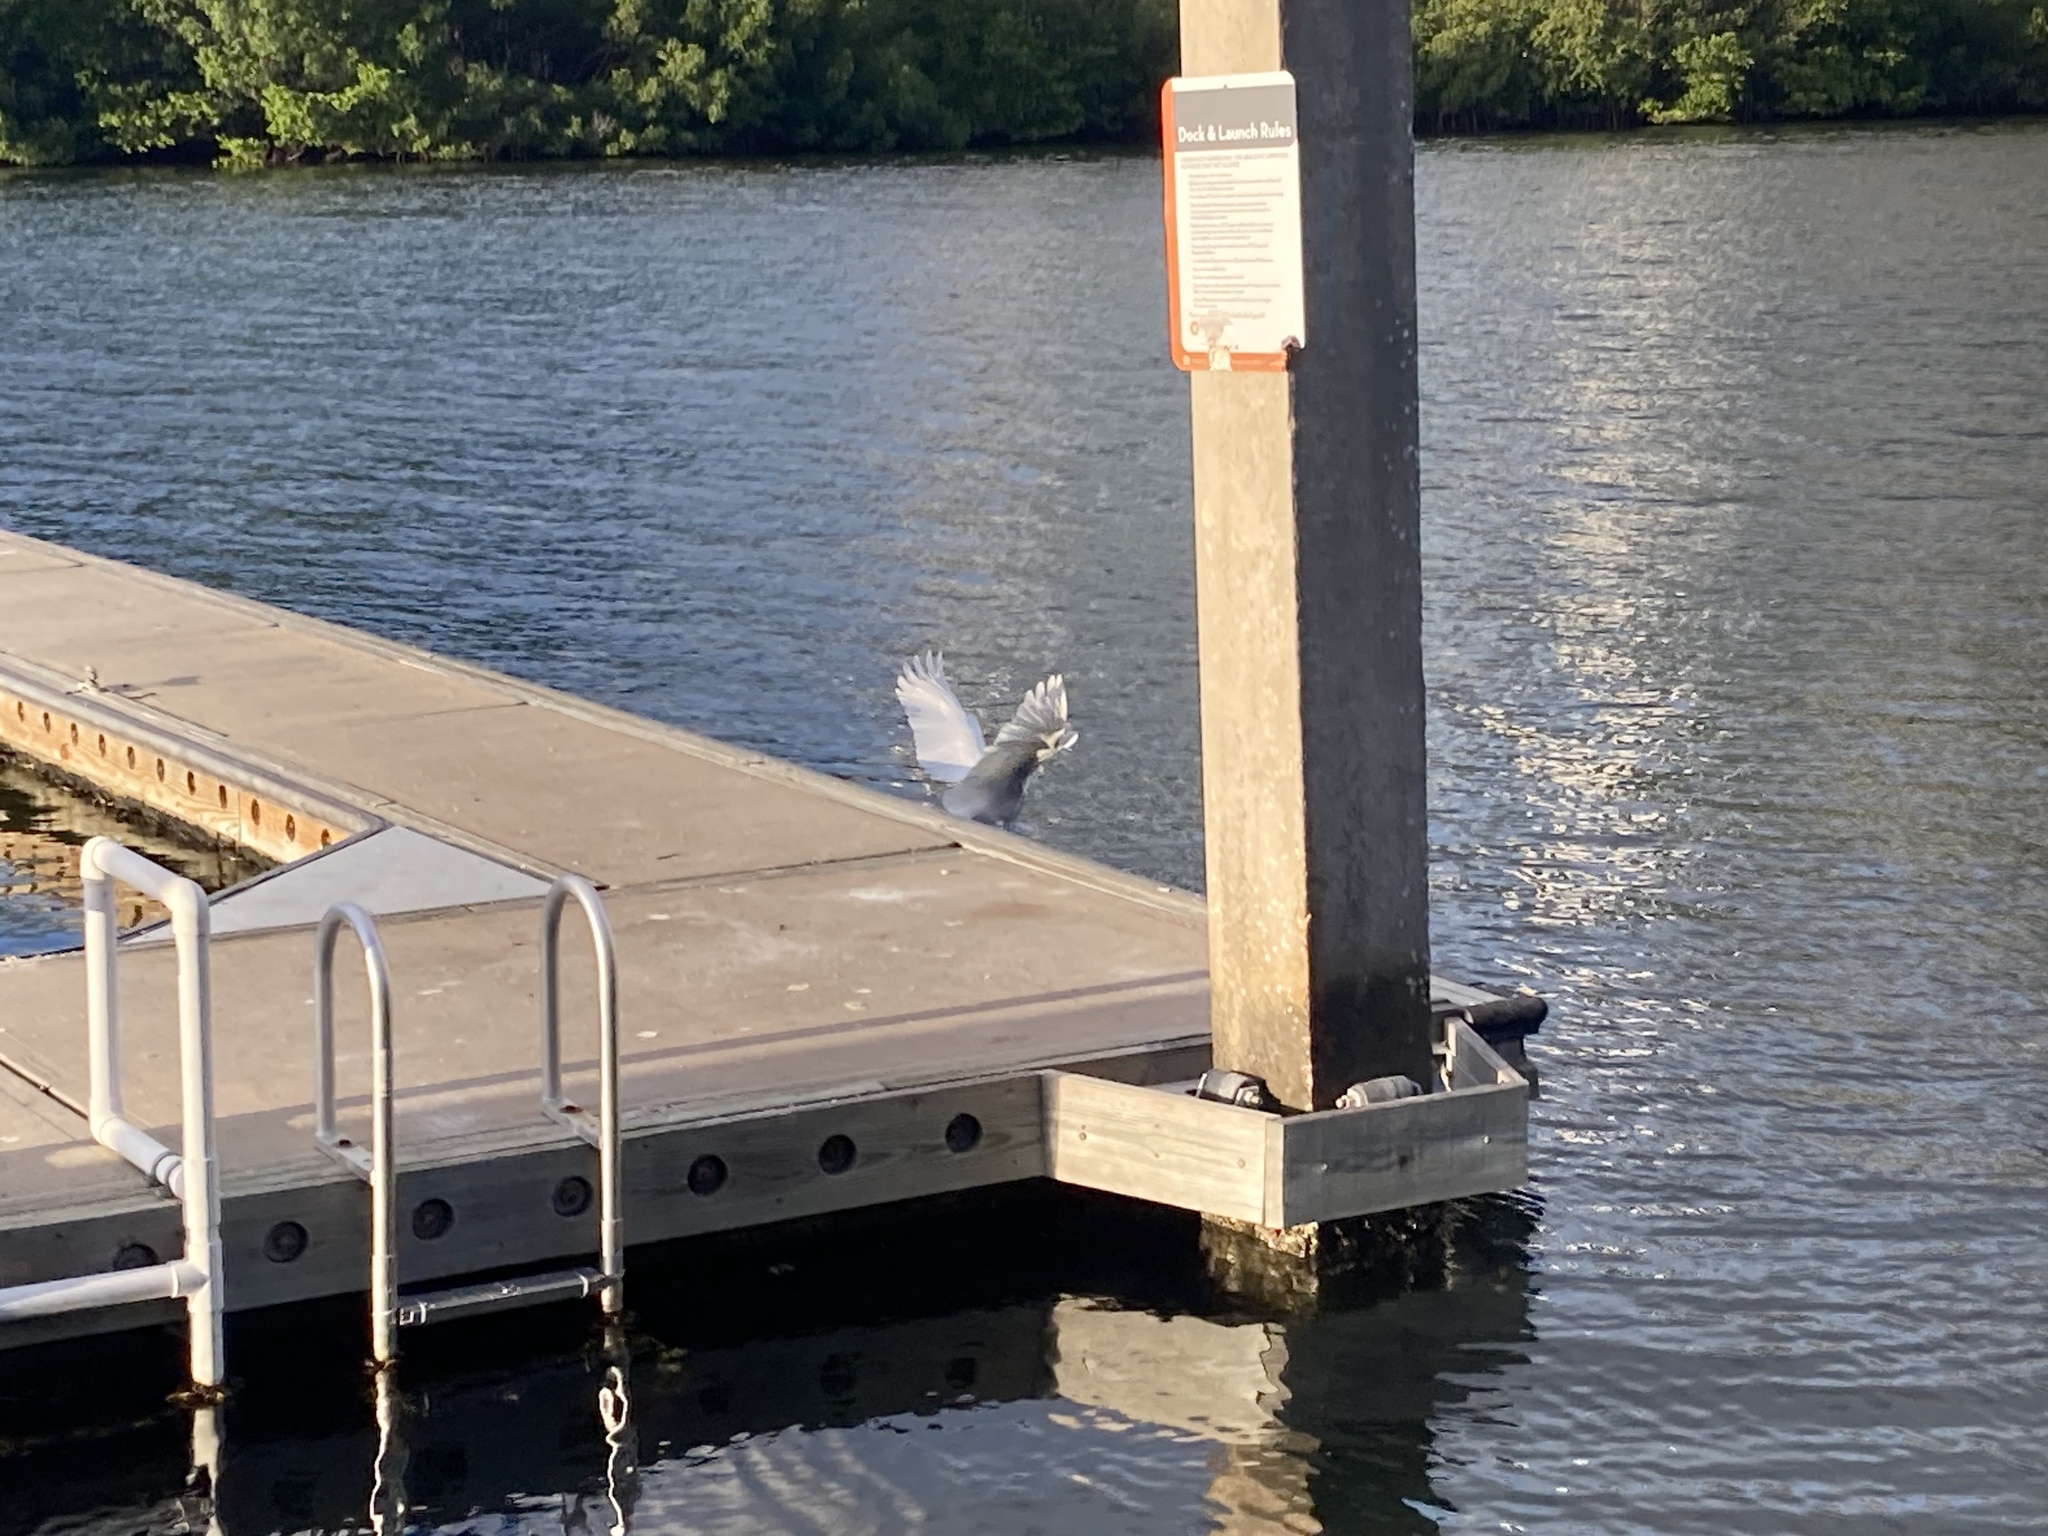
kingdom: Animalia
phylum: Chordata
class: Aves
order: Pelecaniformes
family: Ardeidae
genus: Ardea
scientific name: Ardea alba
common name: Great egret
